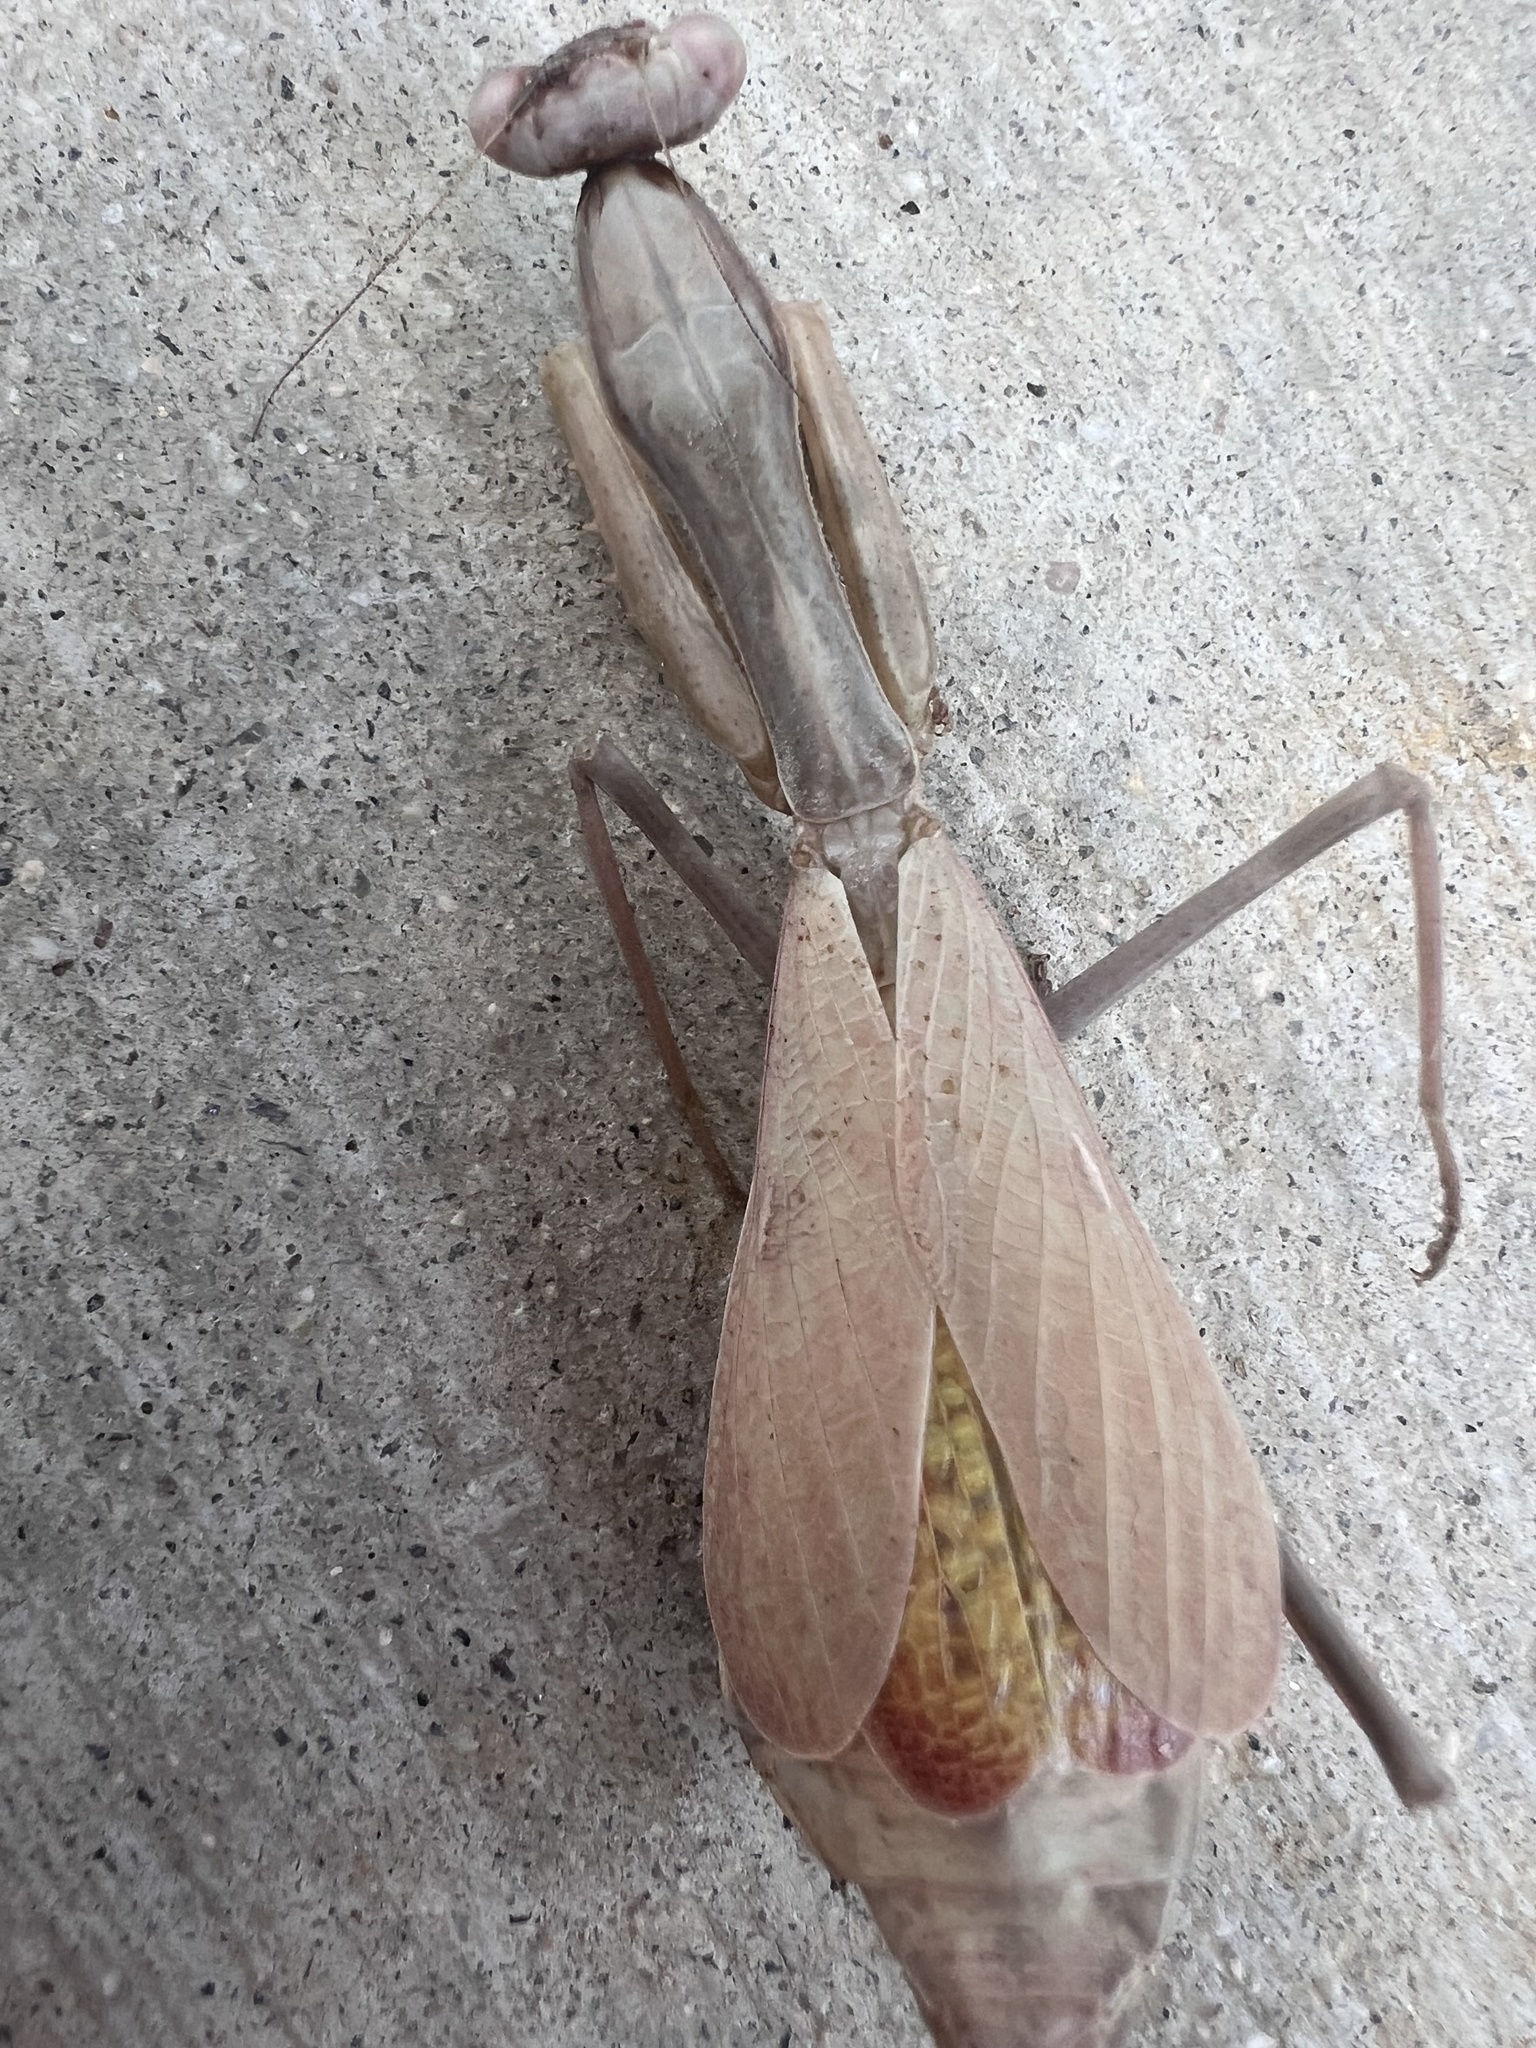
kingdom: Animalia
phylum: Arthropoda
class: Insecta
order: Mantodea
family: Mantidae
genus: Stagmomantis
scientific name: Stagmomantis limbata
